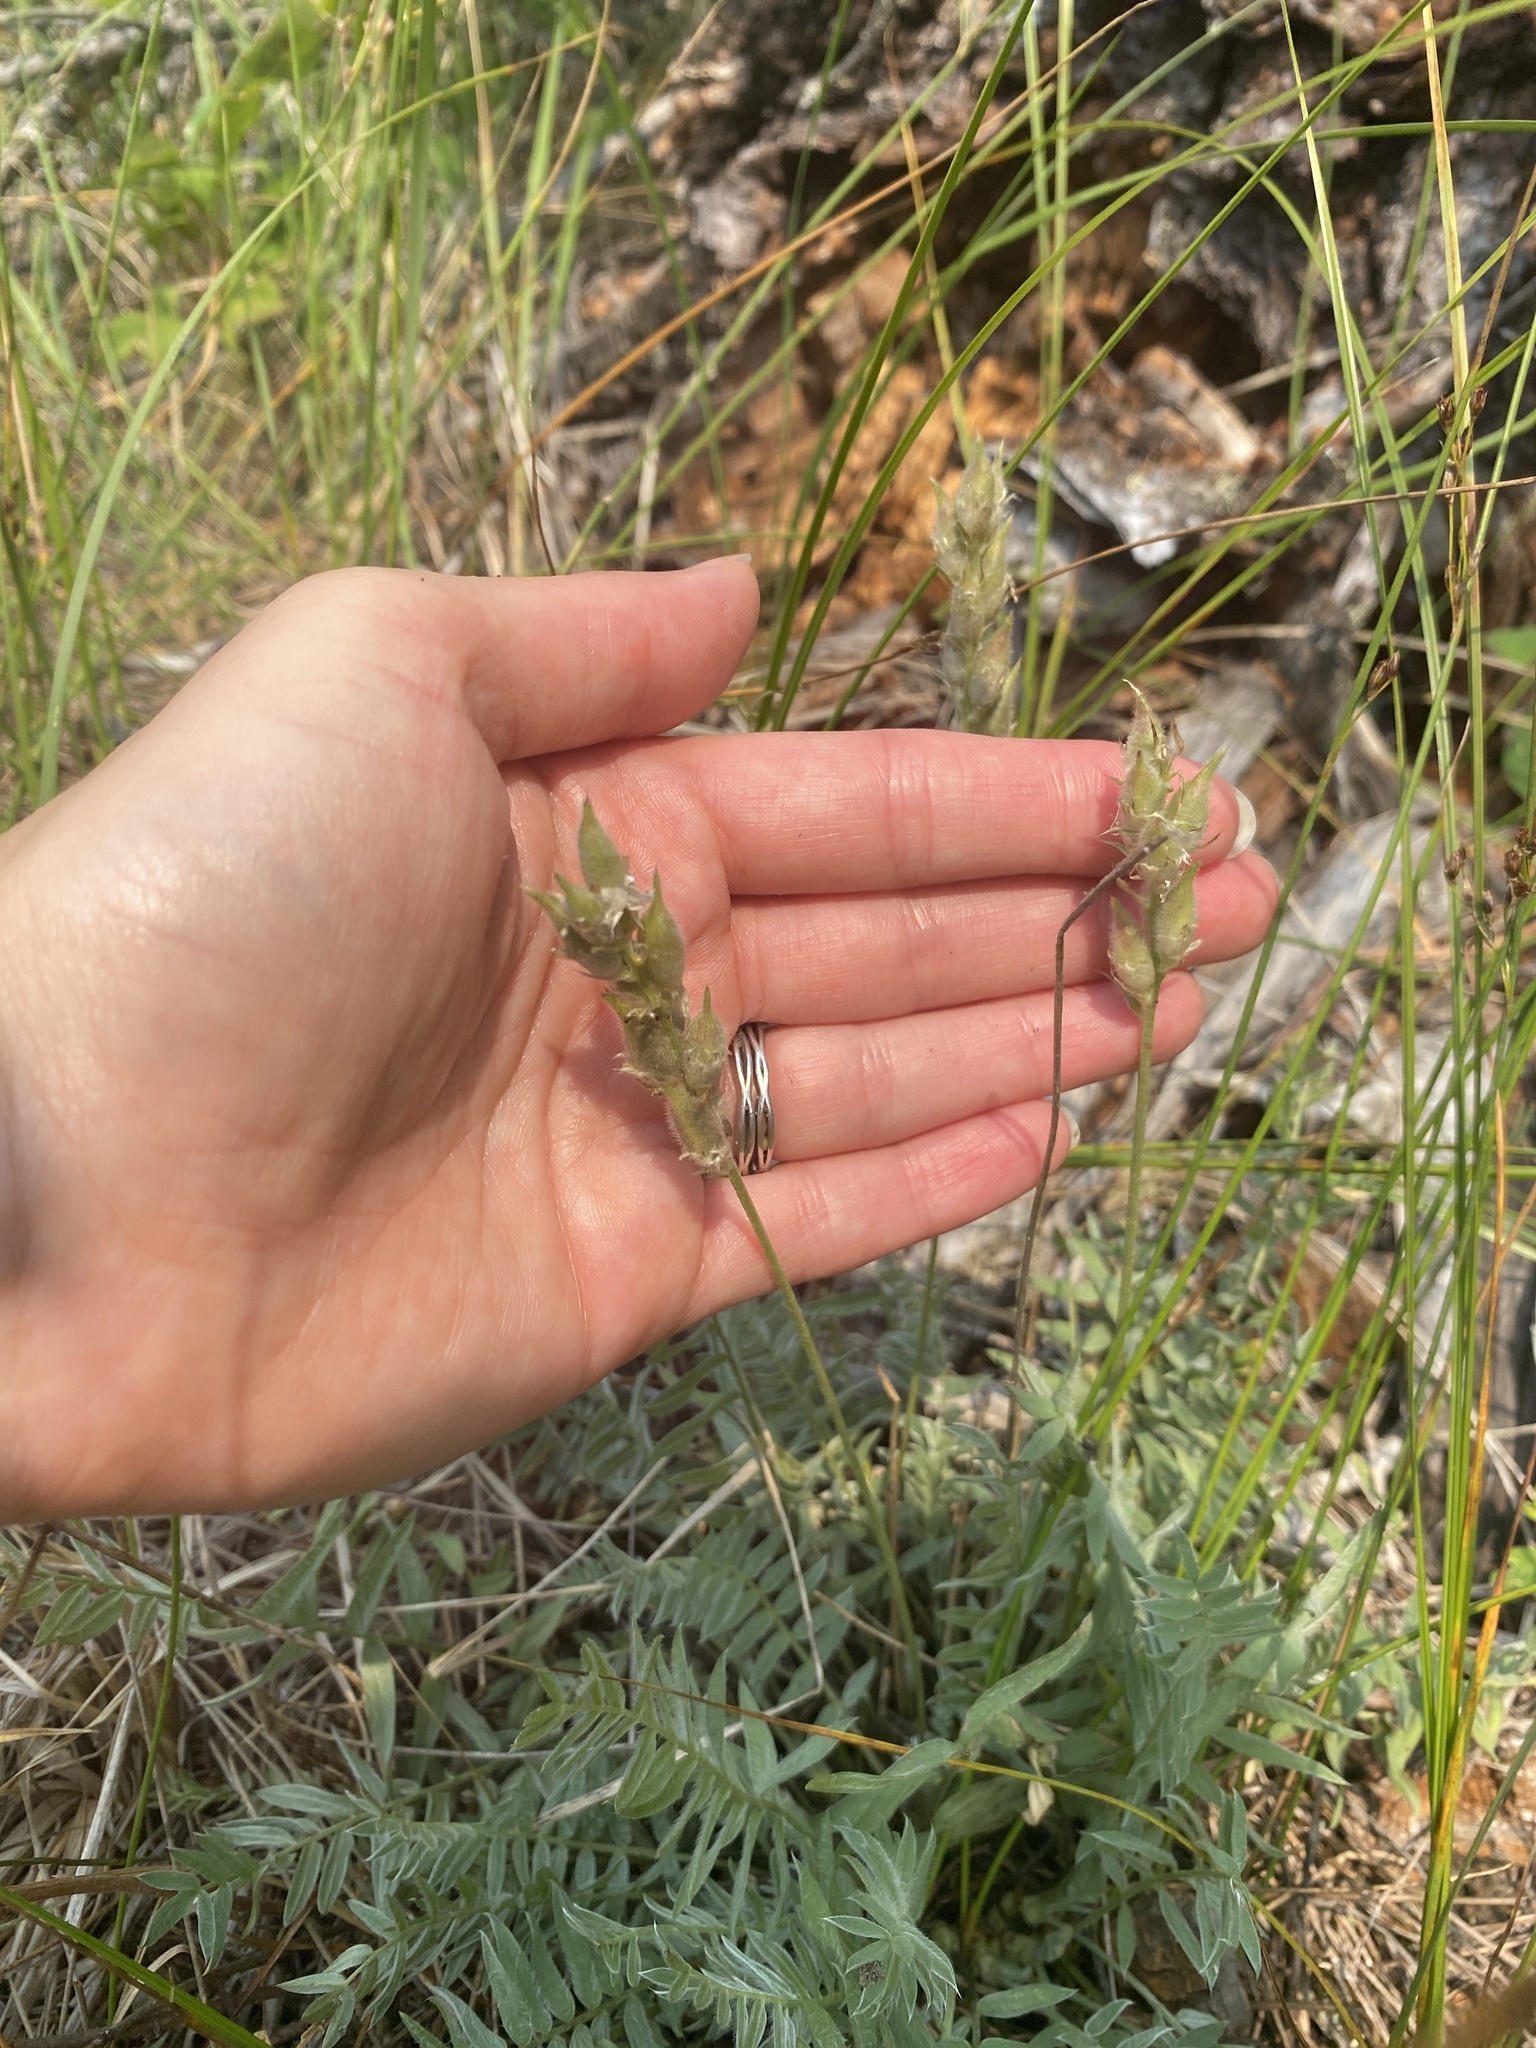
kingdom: Plantae
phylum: Tracheophyta
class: Magnoliopsida
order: Fabales
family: Fabaceae
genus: Oxytropis
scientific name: Oxytropis campestris
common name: Field locoweed
